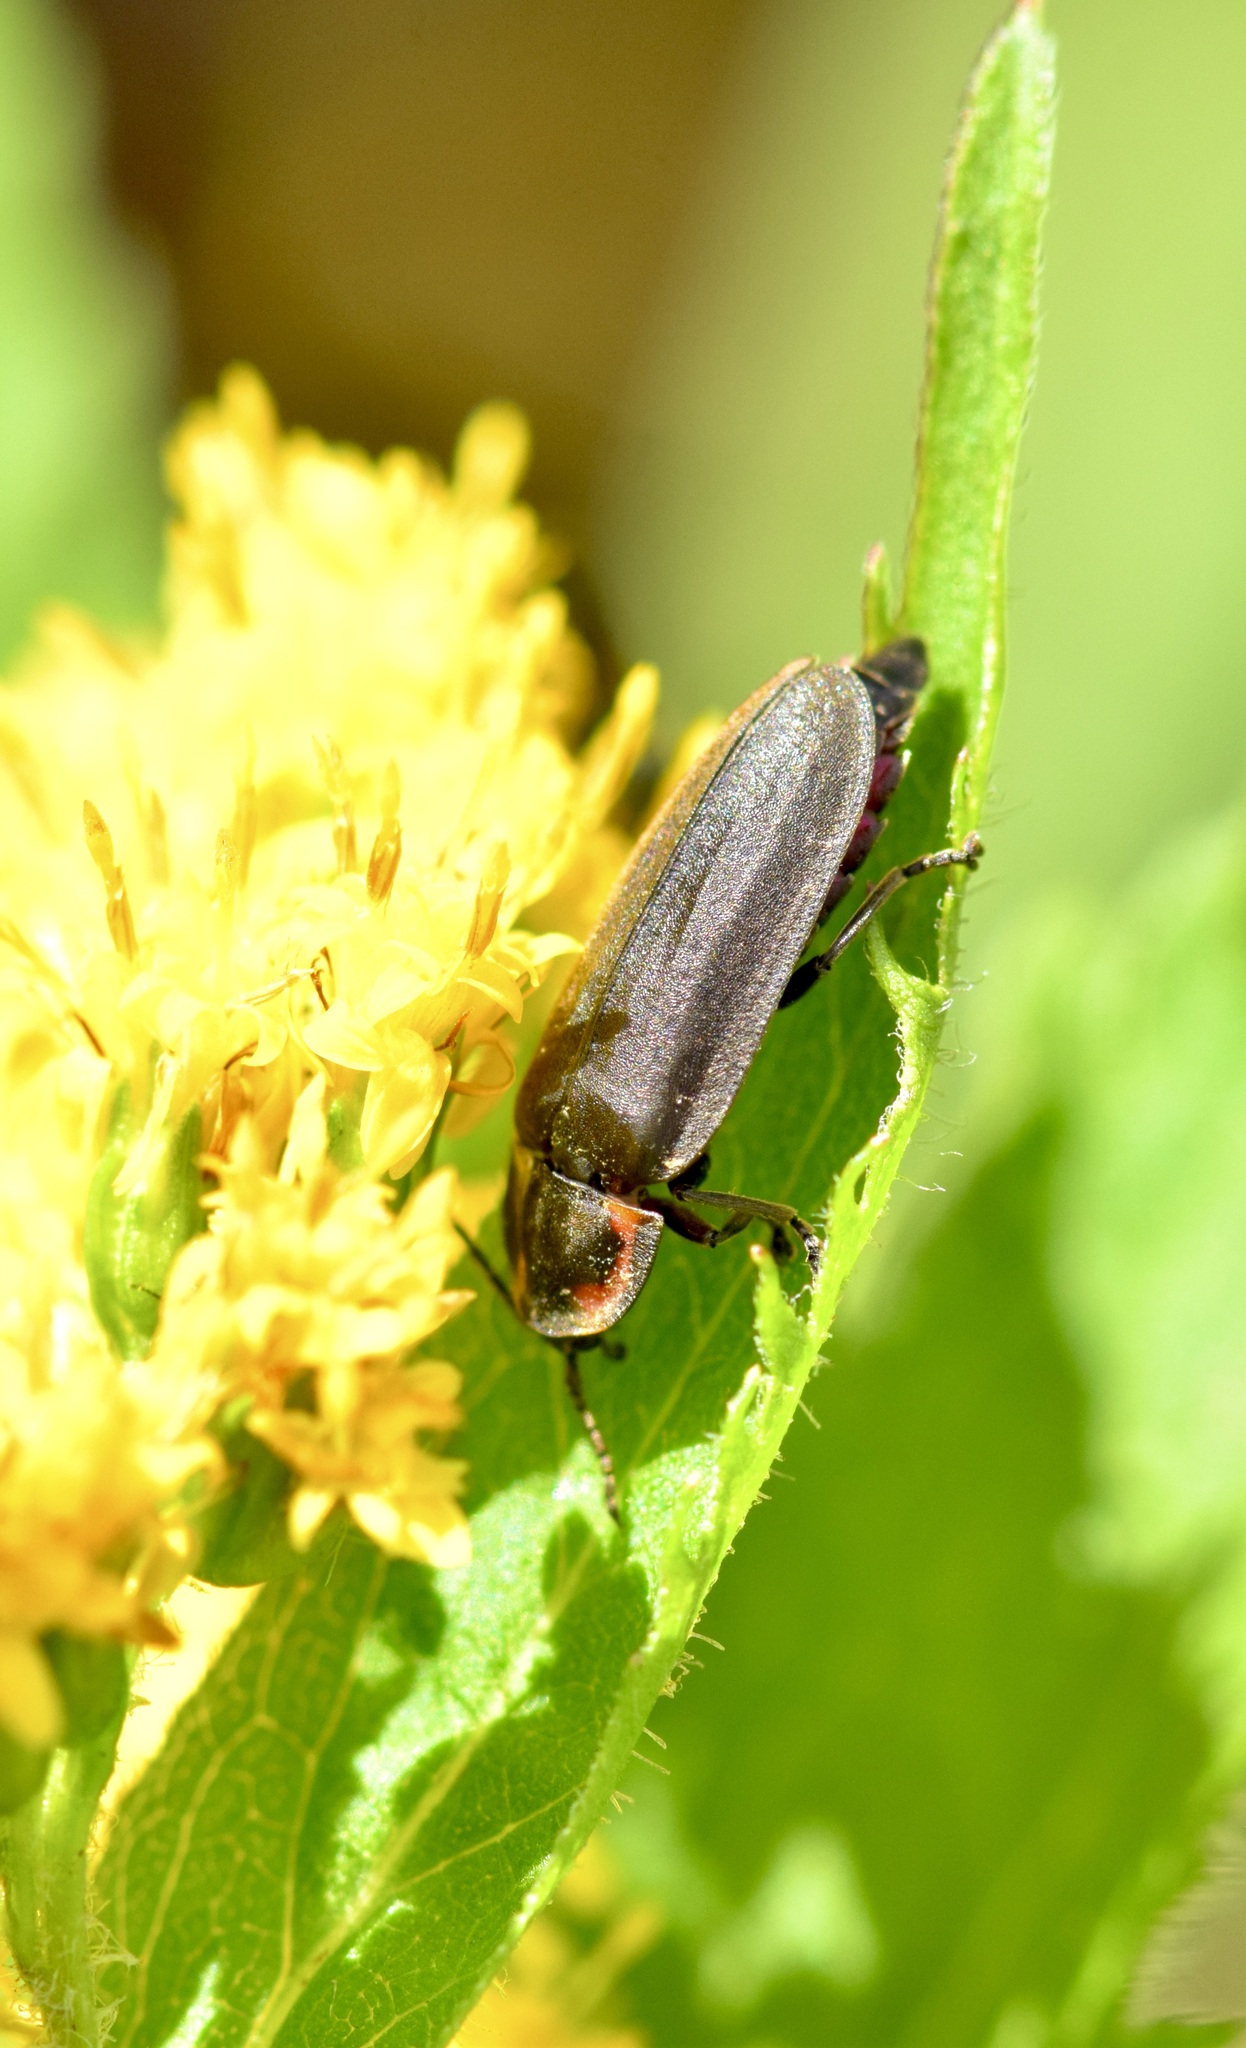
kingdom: Animalia
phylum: Arthropoda
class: Insecta
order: Coleoptera
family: Lampyridae
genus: Photinus
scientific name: Photinus corrusca
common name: Winter firefly
